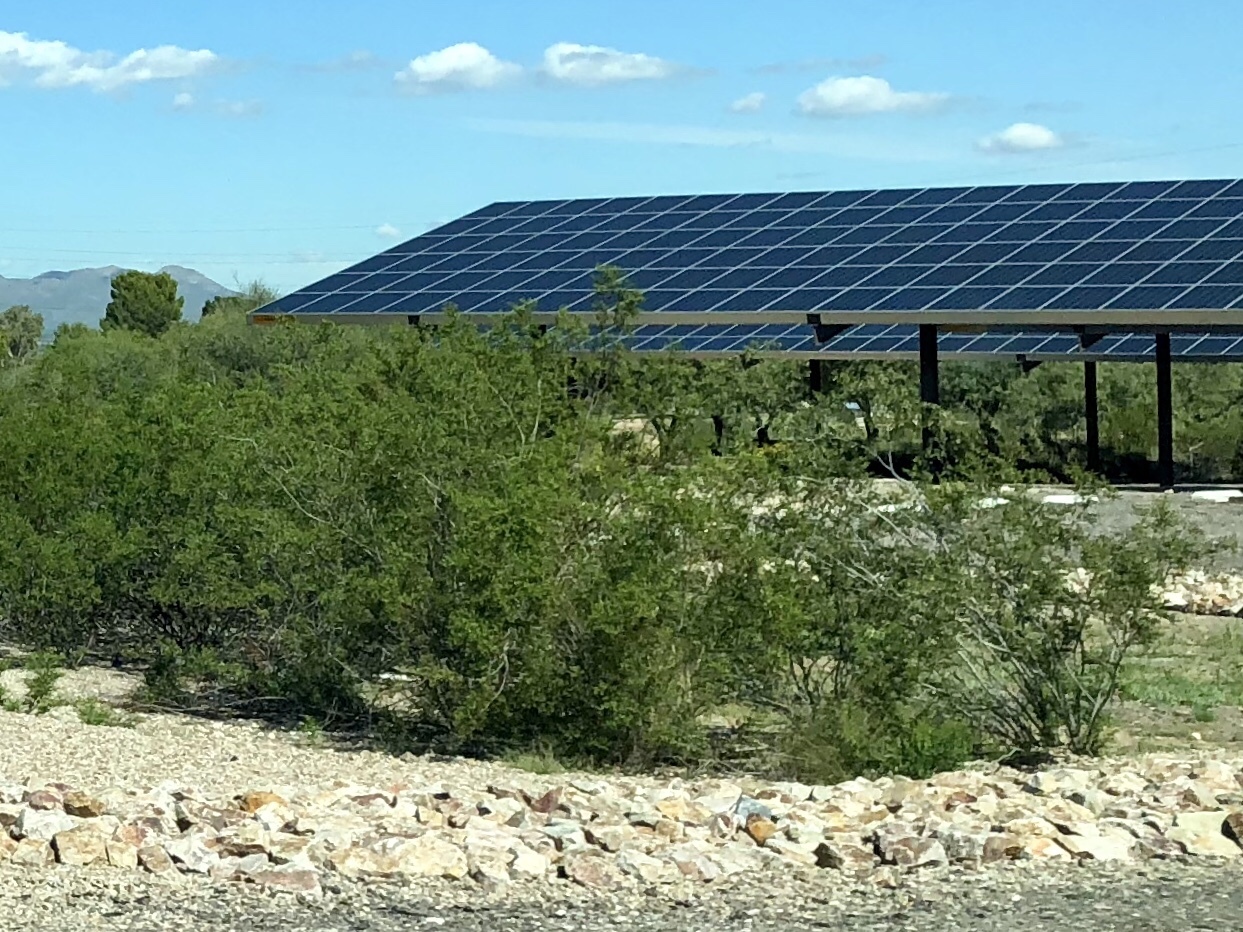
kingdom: Plantae
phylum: Tracheophyta
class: Magnoliopsida
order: Zygophyllales
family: Zygophyllaceae
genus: Larrea
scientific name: Larrea tridentata
